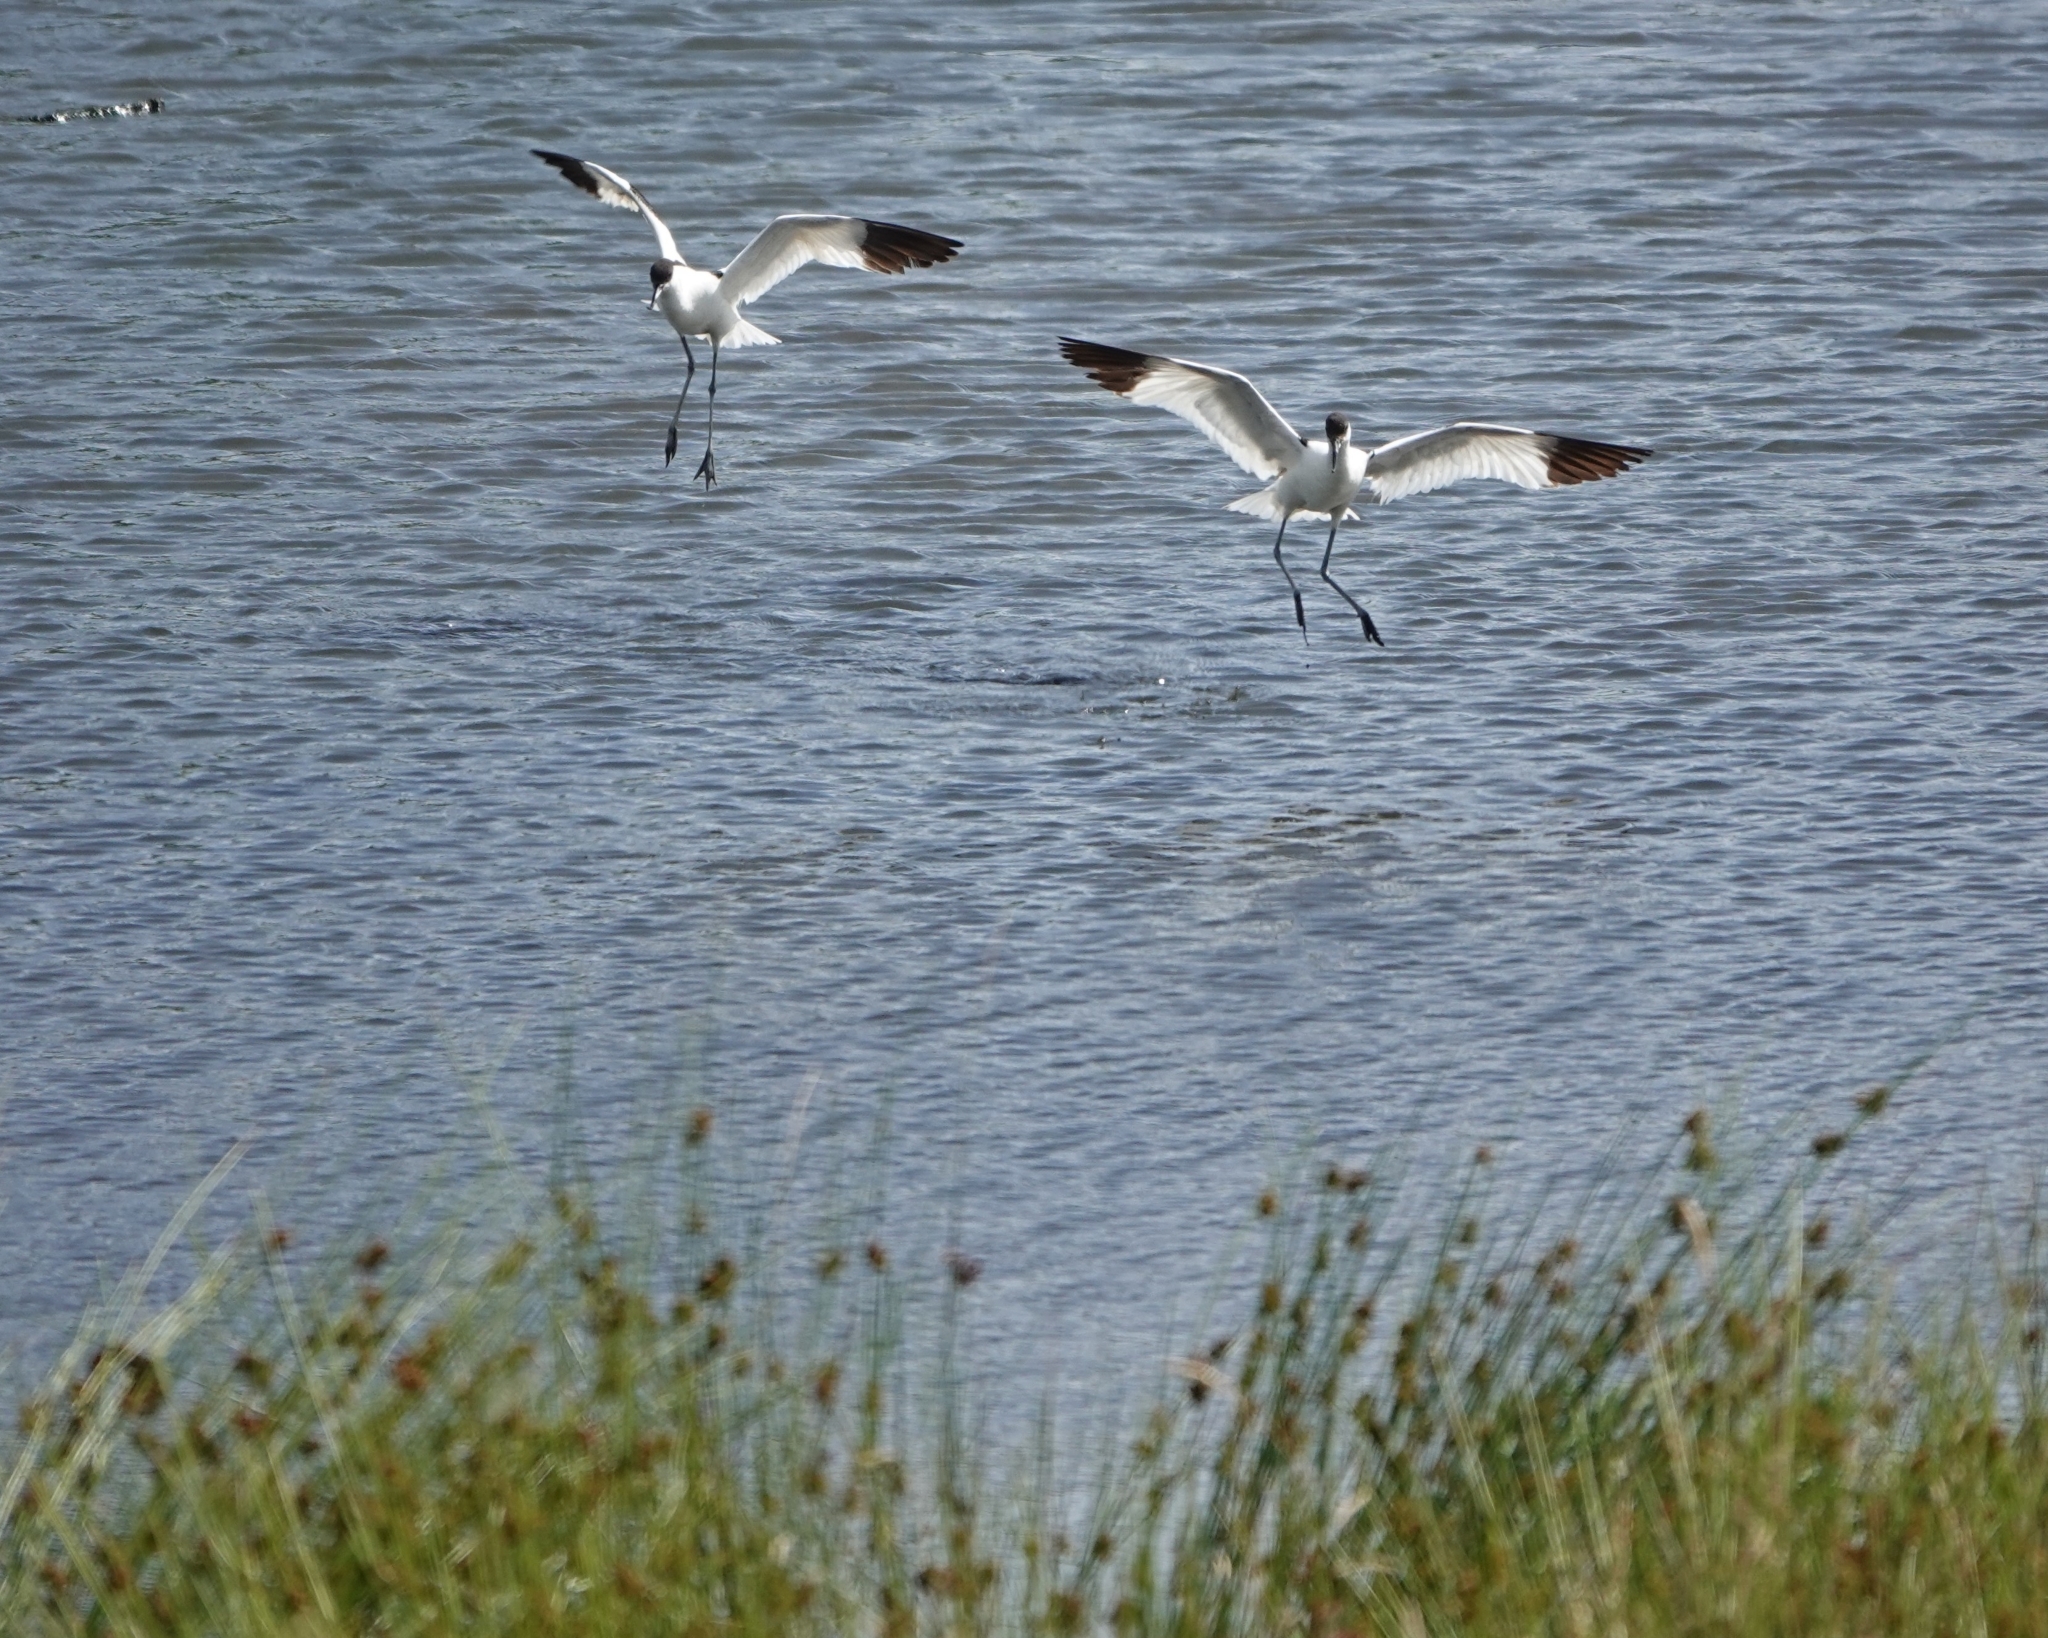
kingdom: Animalia
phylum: Chordata
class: Aves
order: Charadriiformes
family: Recurvirostridae
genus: Recurvirostra
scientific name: Recurvirostra avosetta
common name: Pied avocet
